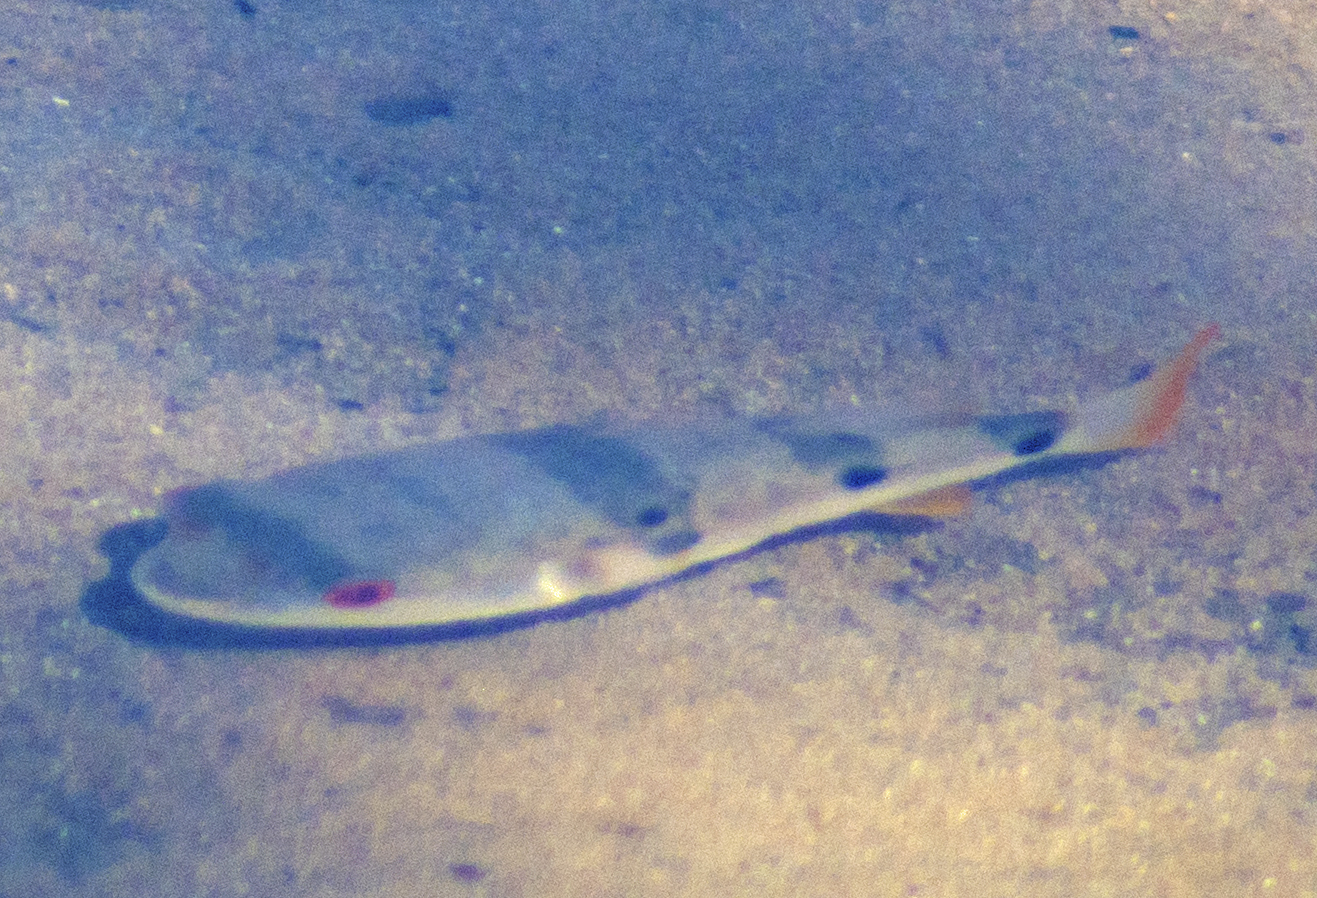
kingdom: Animalia
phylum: Chordata
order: Tetraodontiformes
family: Tetraodontidae
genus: Marilyna
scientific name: Marilyna pleurosticta
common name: Banded toadfish
